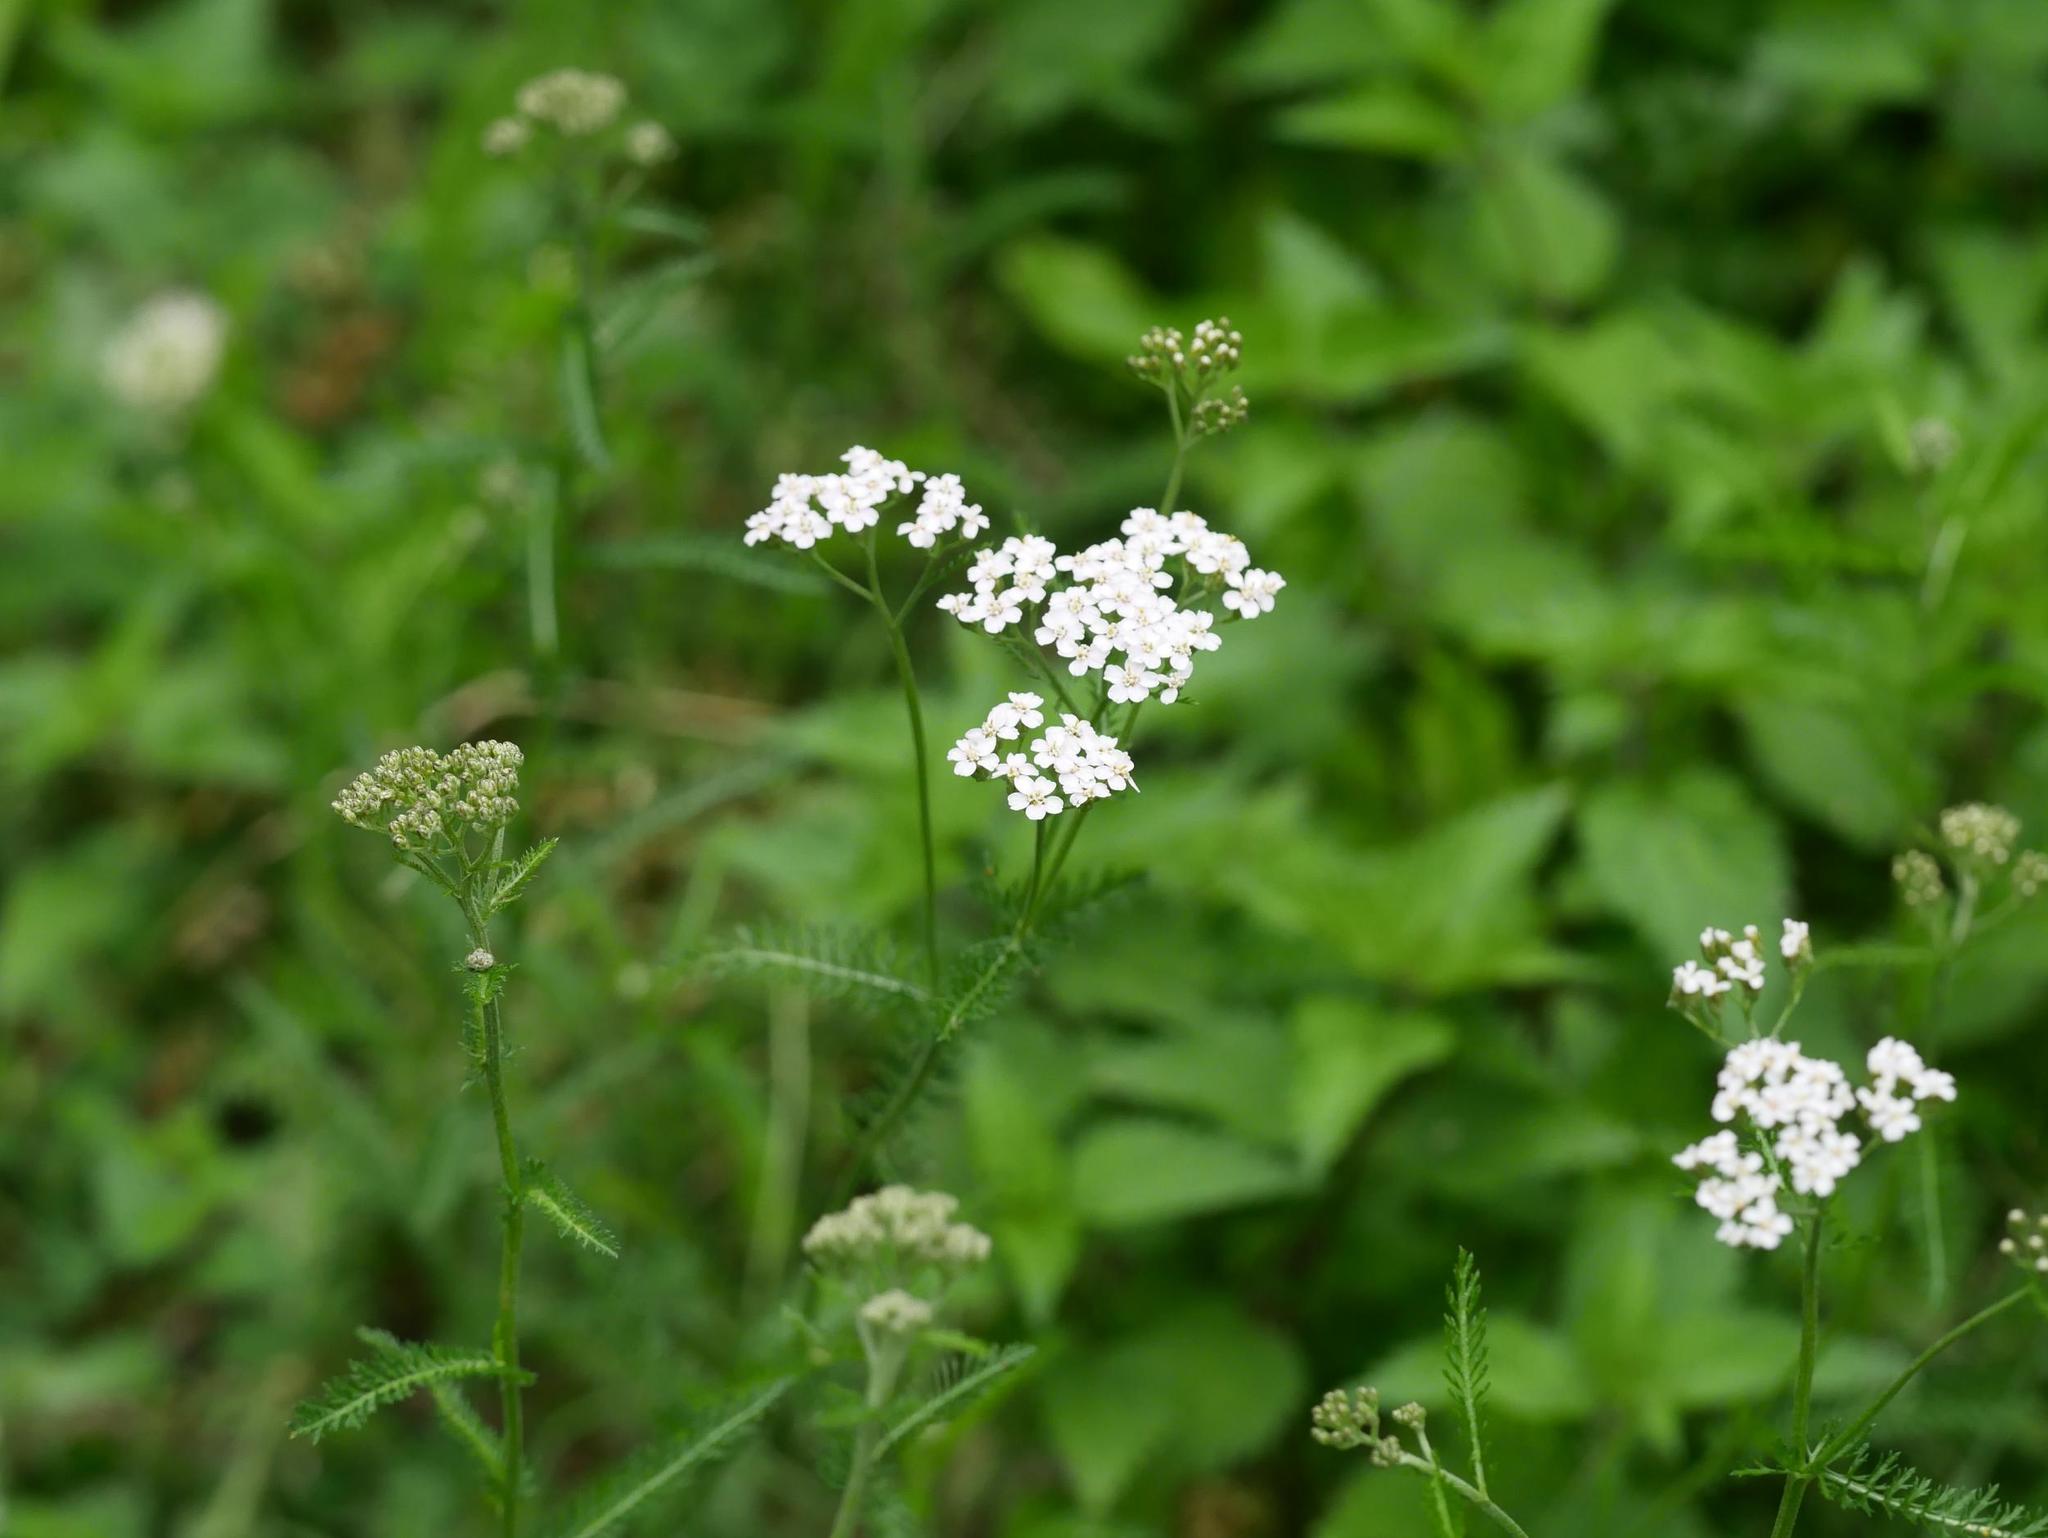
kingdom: Plantae
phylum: Tracheophyta
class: Magnoliopsida
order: Asterales
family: Asteraceae
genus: Achillea
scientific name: Achillea millefolium
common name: Yarrow
